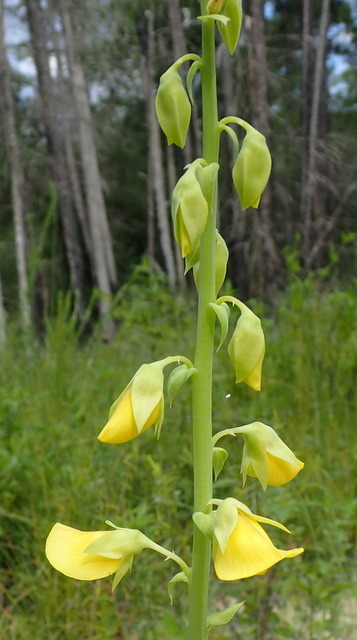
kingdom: Plantae
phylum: Tracheophyta
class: Magnoliopsida
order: Fabales
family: Fabaceae
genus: Crotalaria
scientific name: Crotalaria spectabilis
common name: Showy rattlebox
